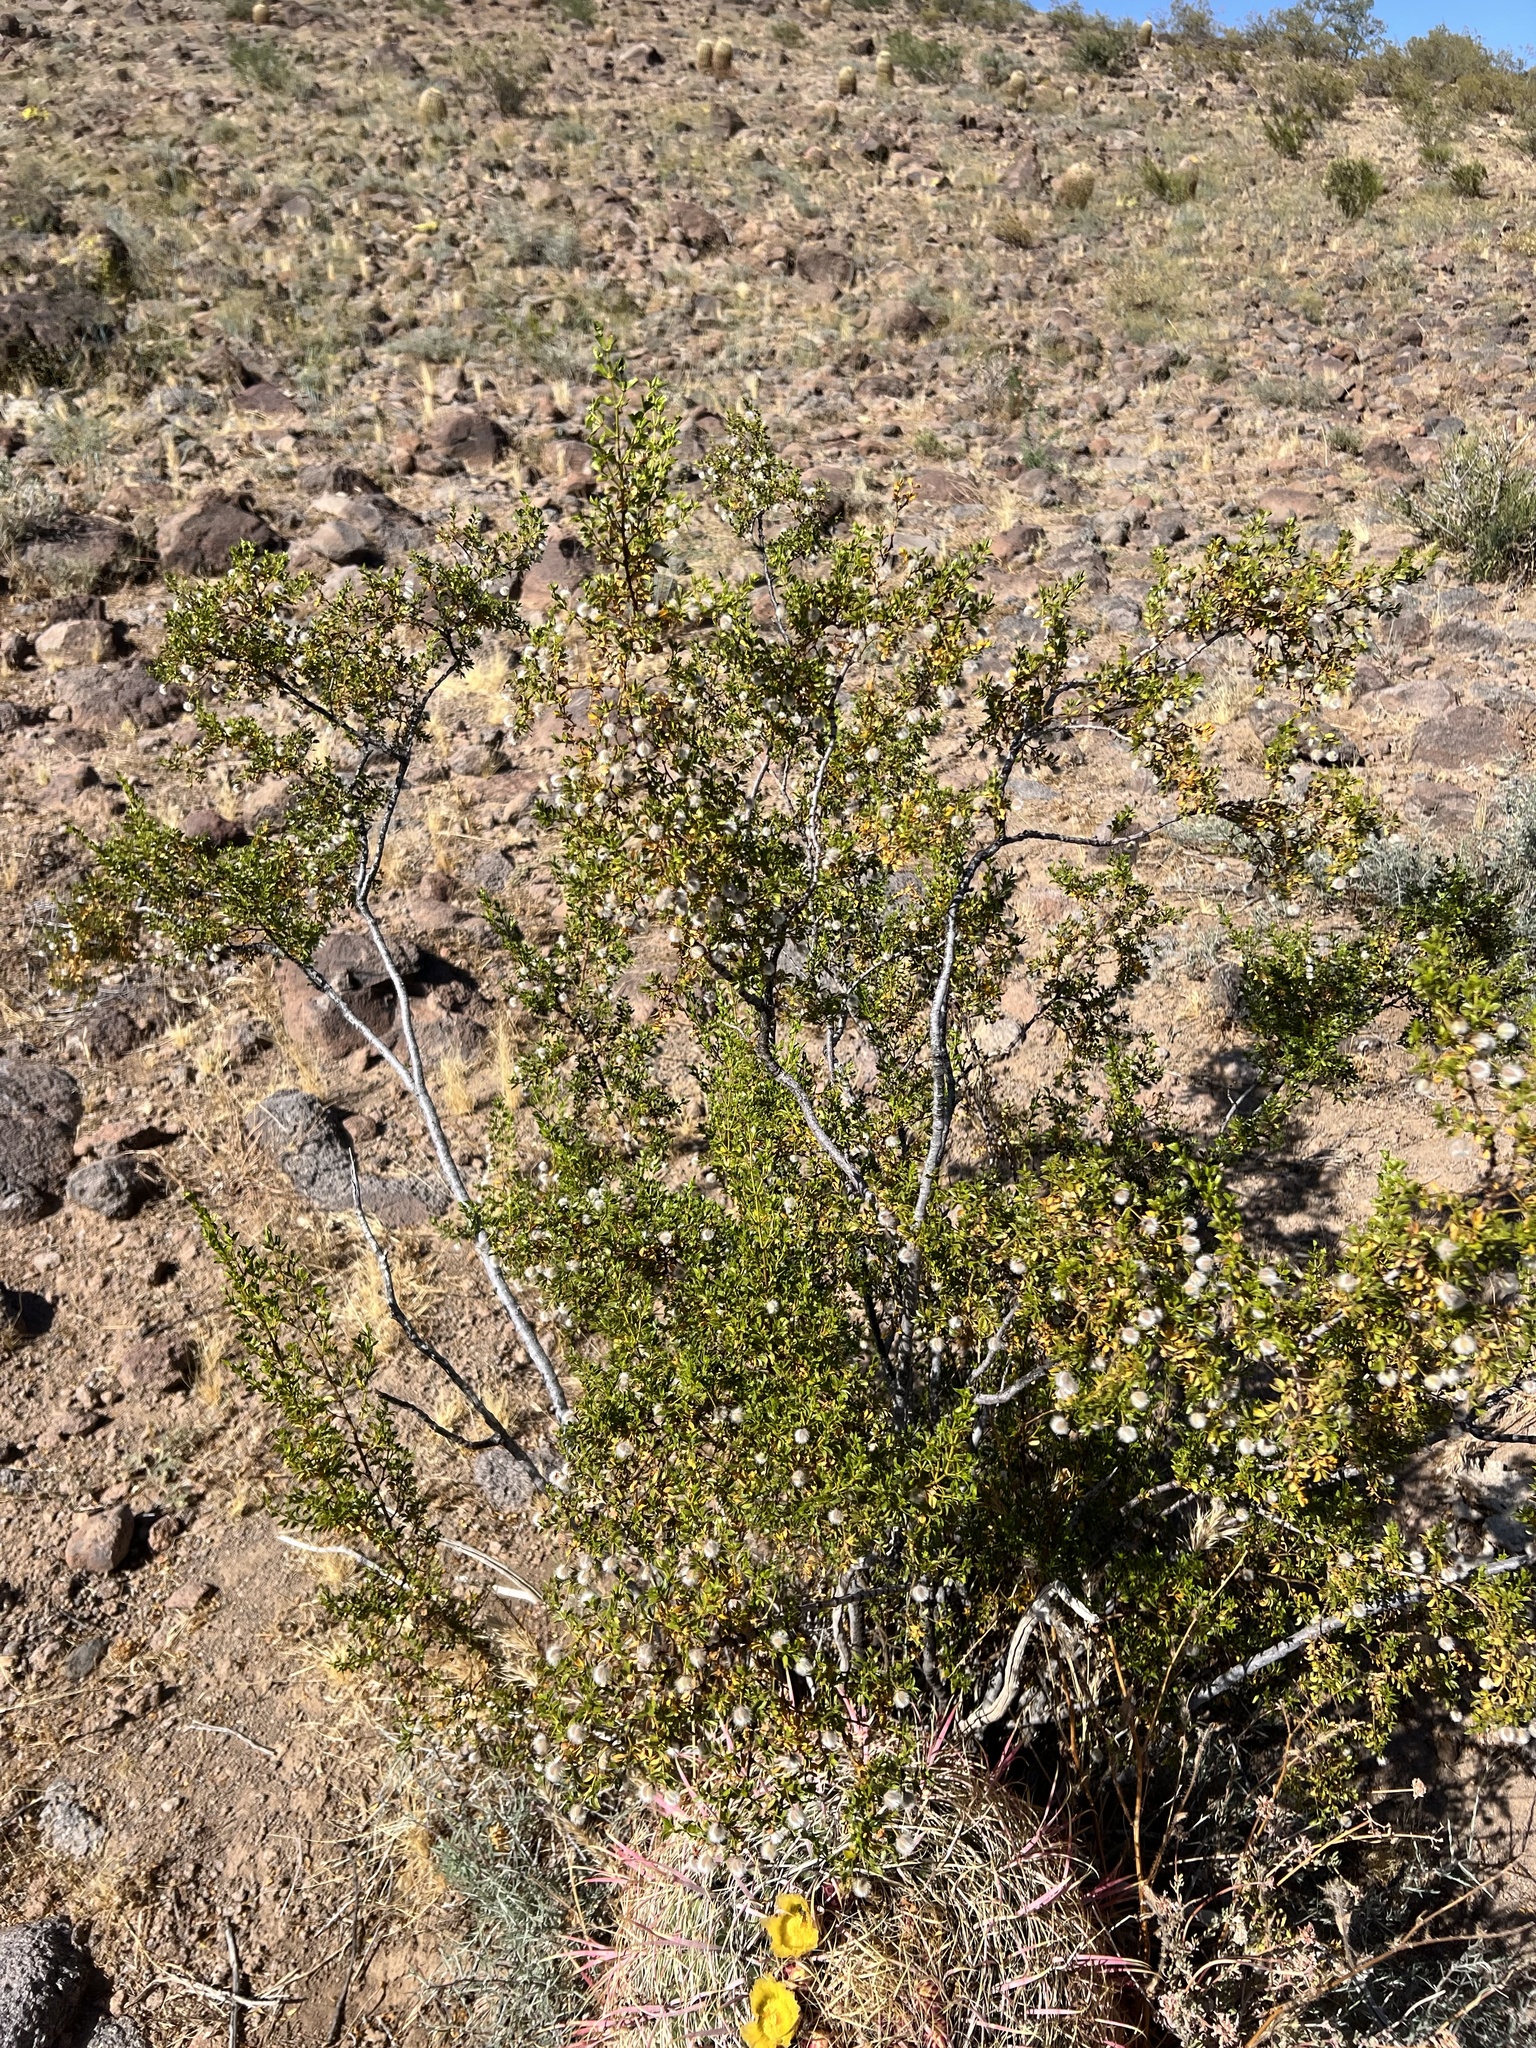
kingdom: Plantae
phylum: Tracheophyta
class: Magnoliopsida
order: Zygophyllales
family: Zygophyllaceae
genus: Larrea
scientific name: Larrea tridentata
